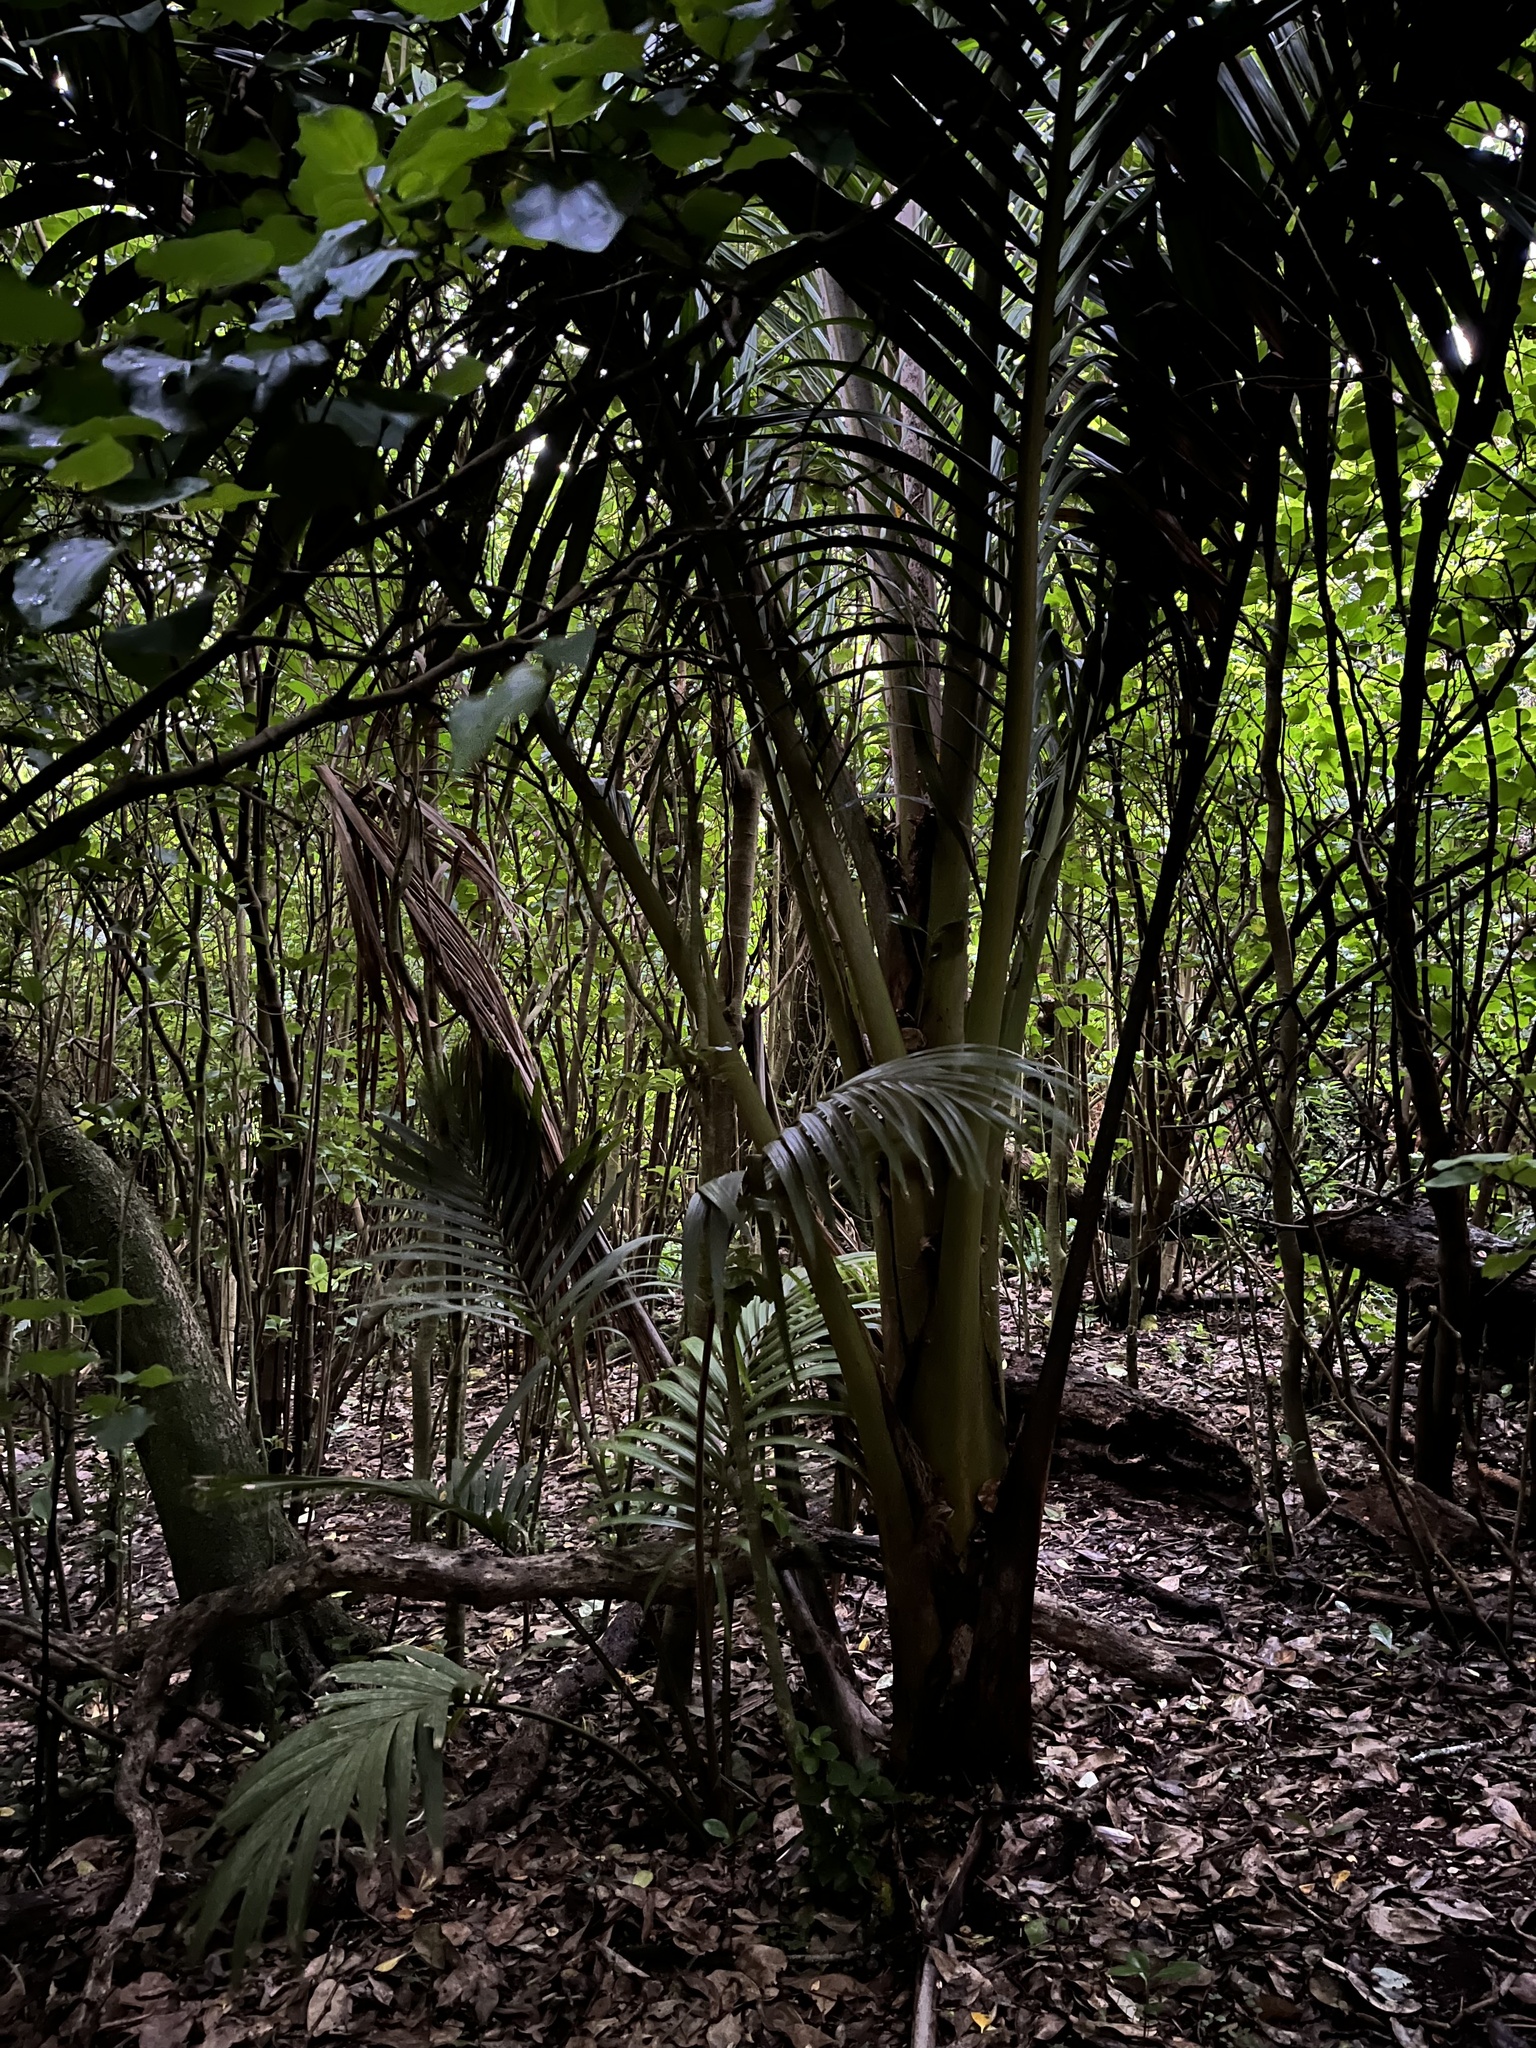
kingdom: Plantae
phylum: Tracheophyta
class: Liliopsida
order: Arecales
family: Arecaceae
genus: Rhopalostylis
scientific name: Rhopalostylis sapida
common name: Feather-duster palm
